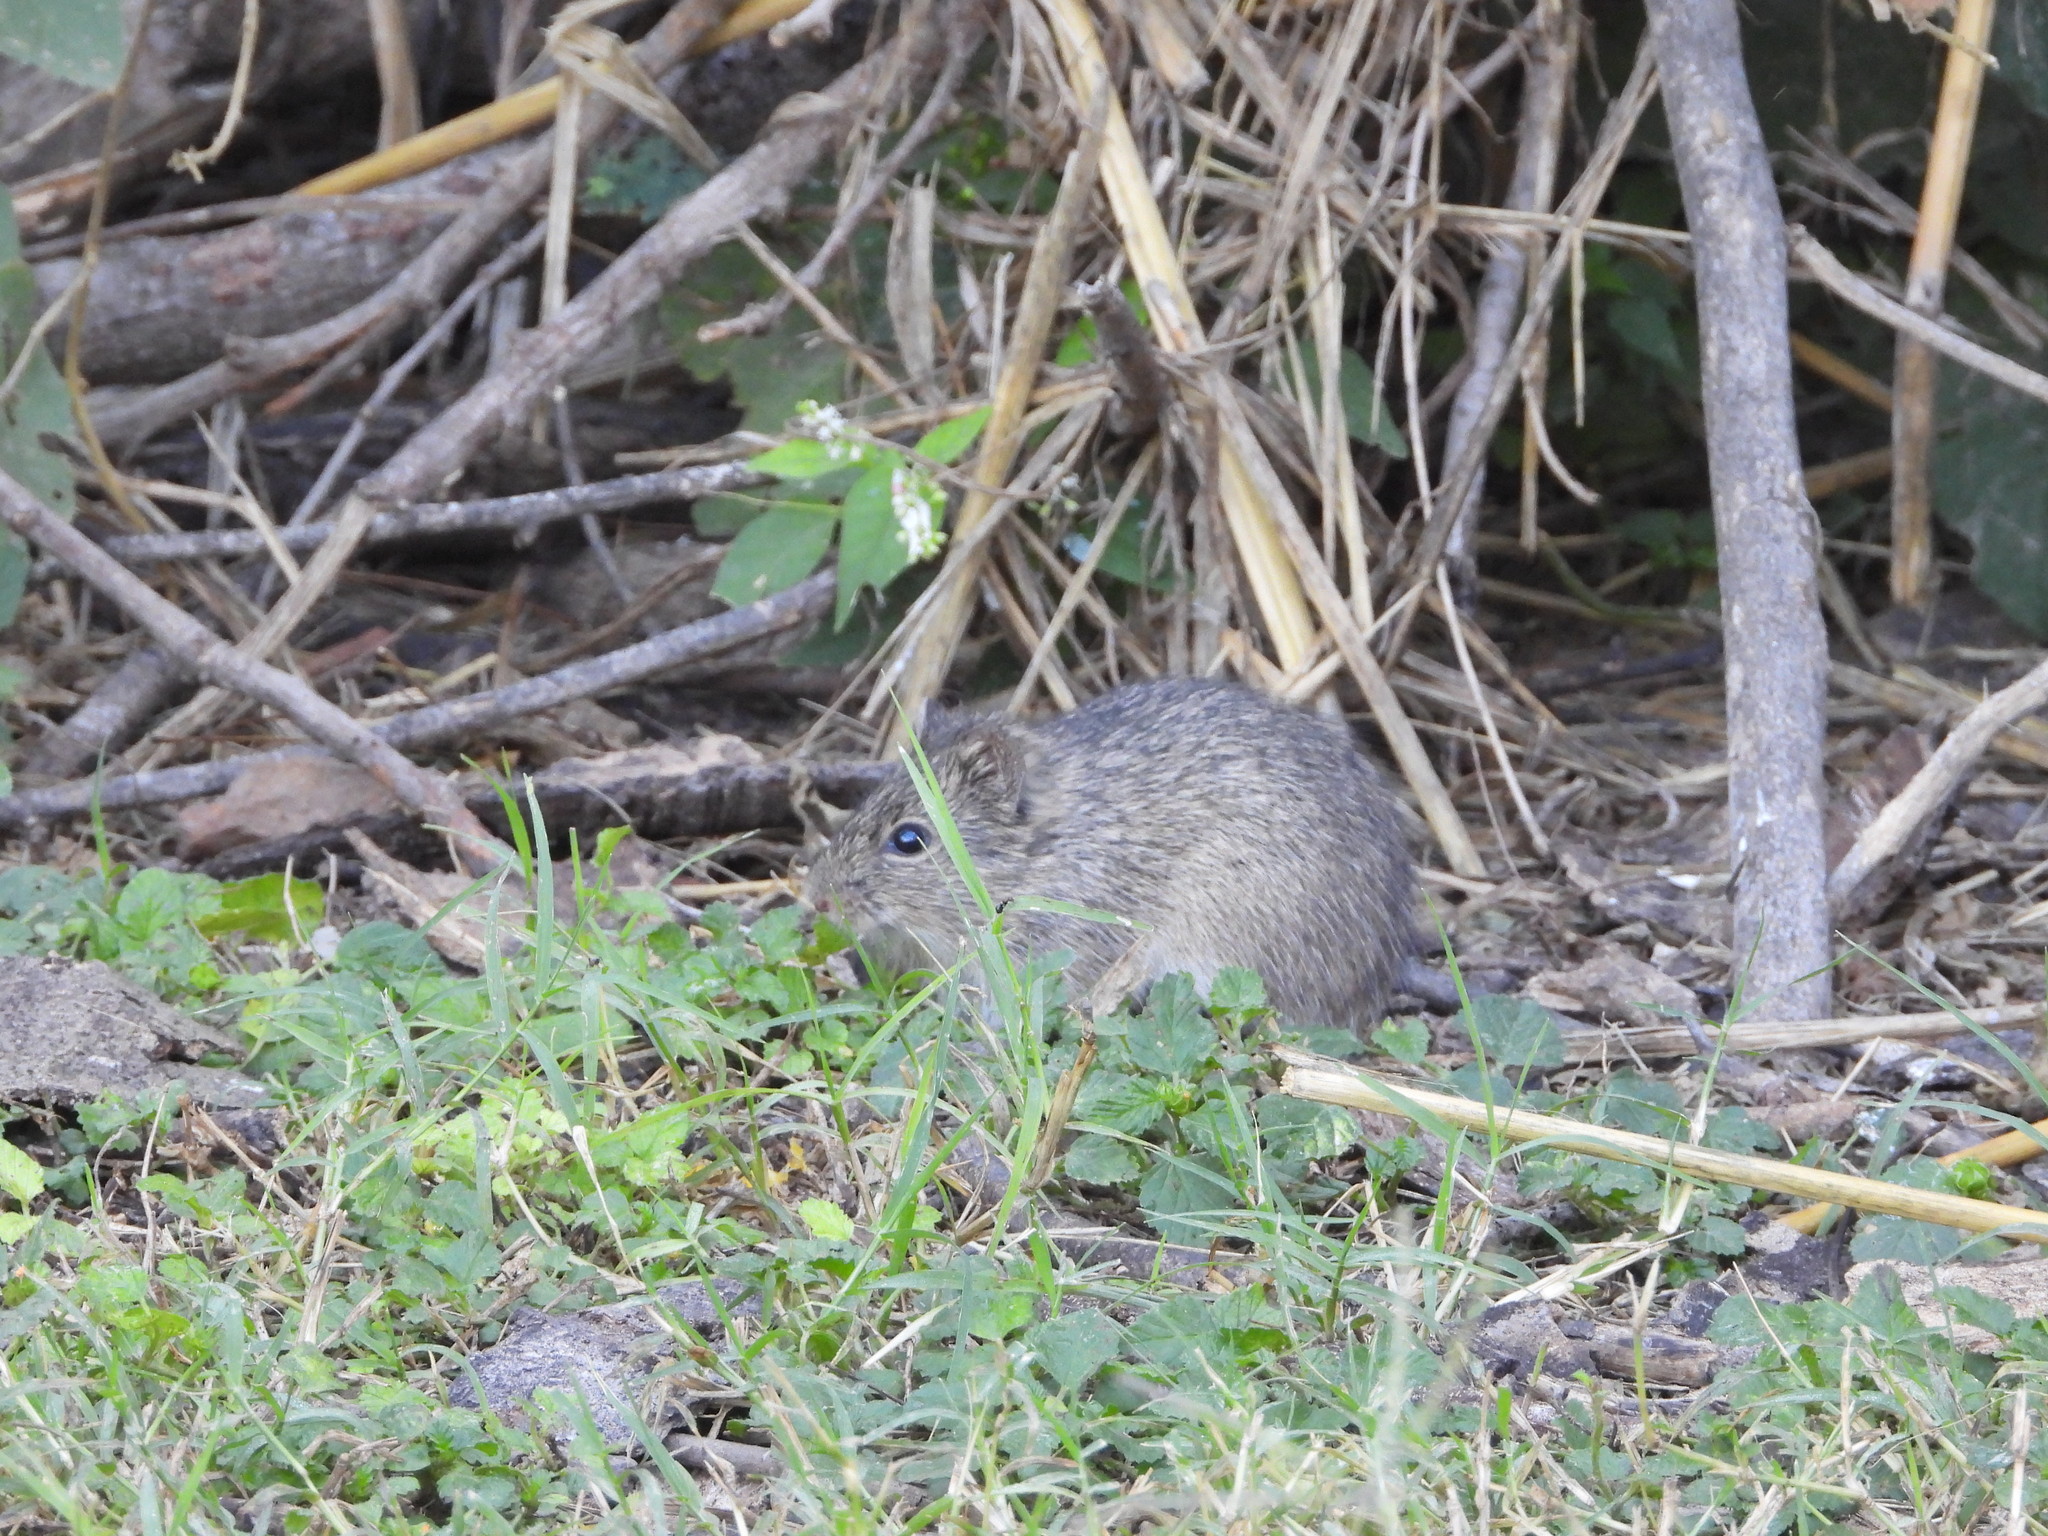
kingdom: Animalia
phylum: Chordata
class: Mammalia
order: Rodentia
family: Cricetidae
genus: Sigmodon
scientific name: Sigmodon hispidus
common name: Hispid cotton rat
